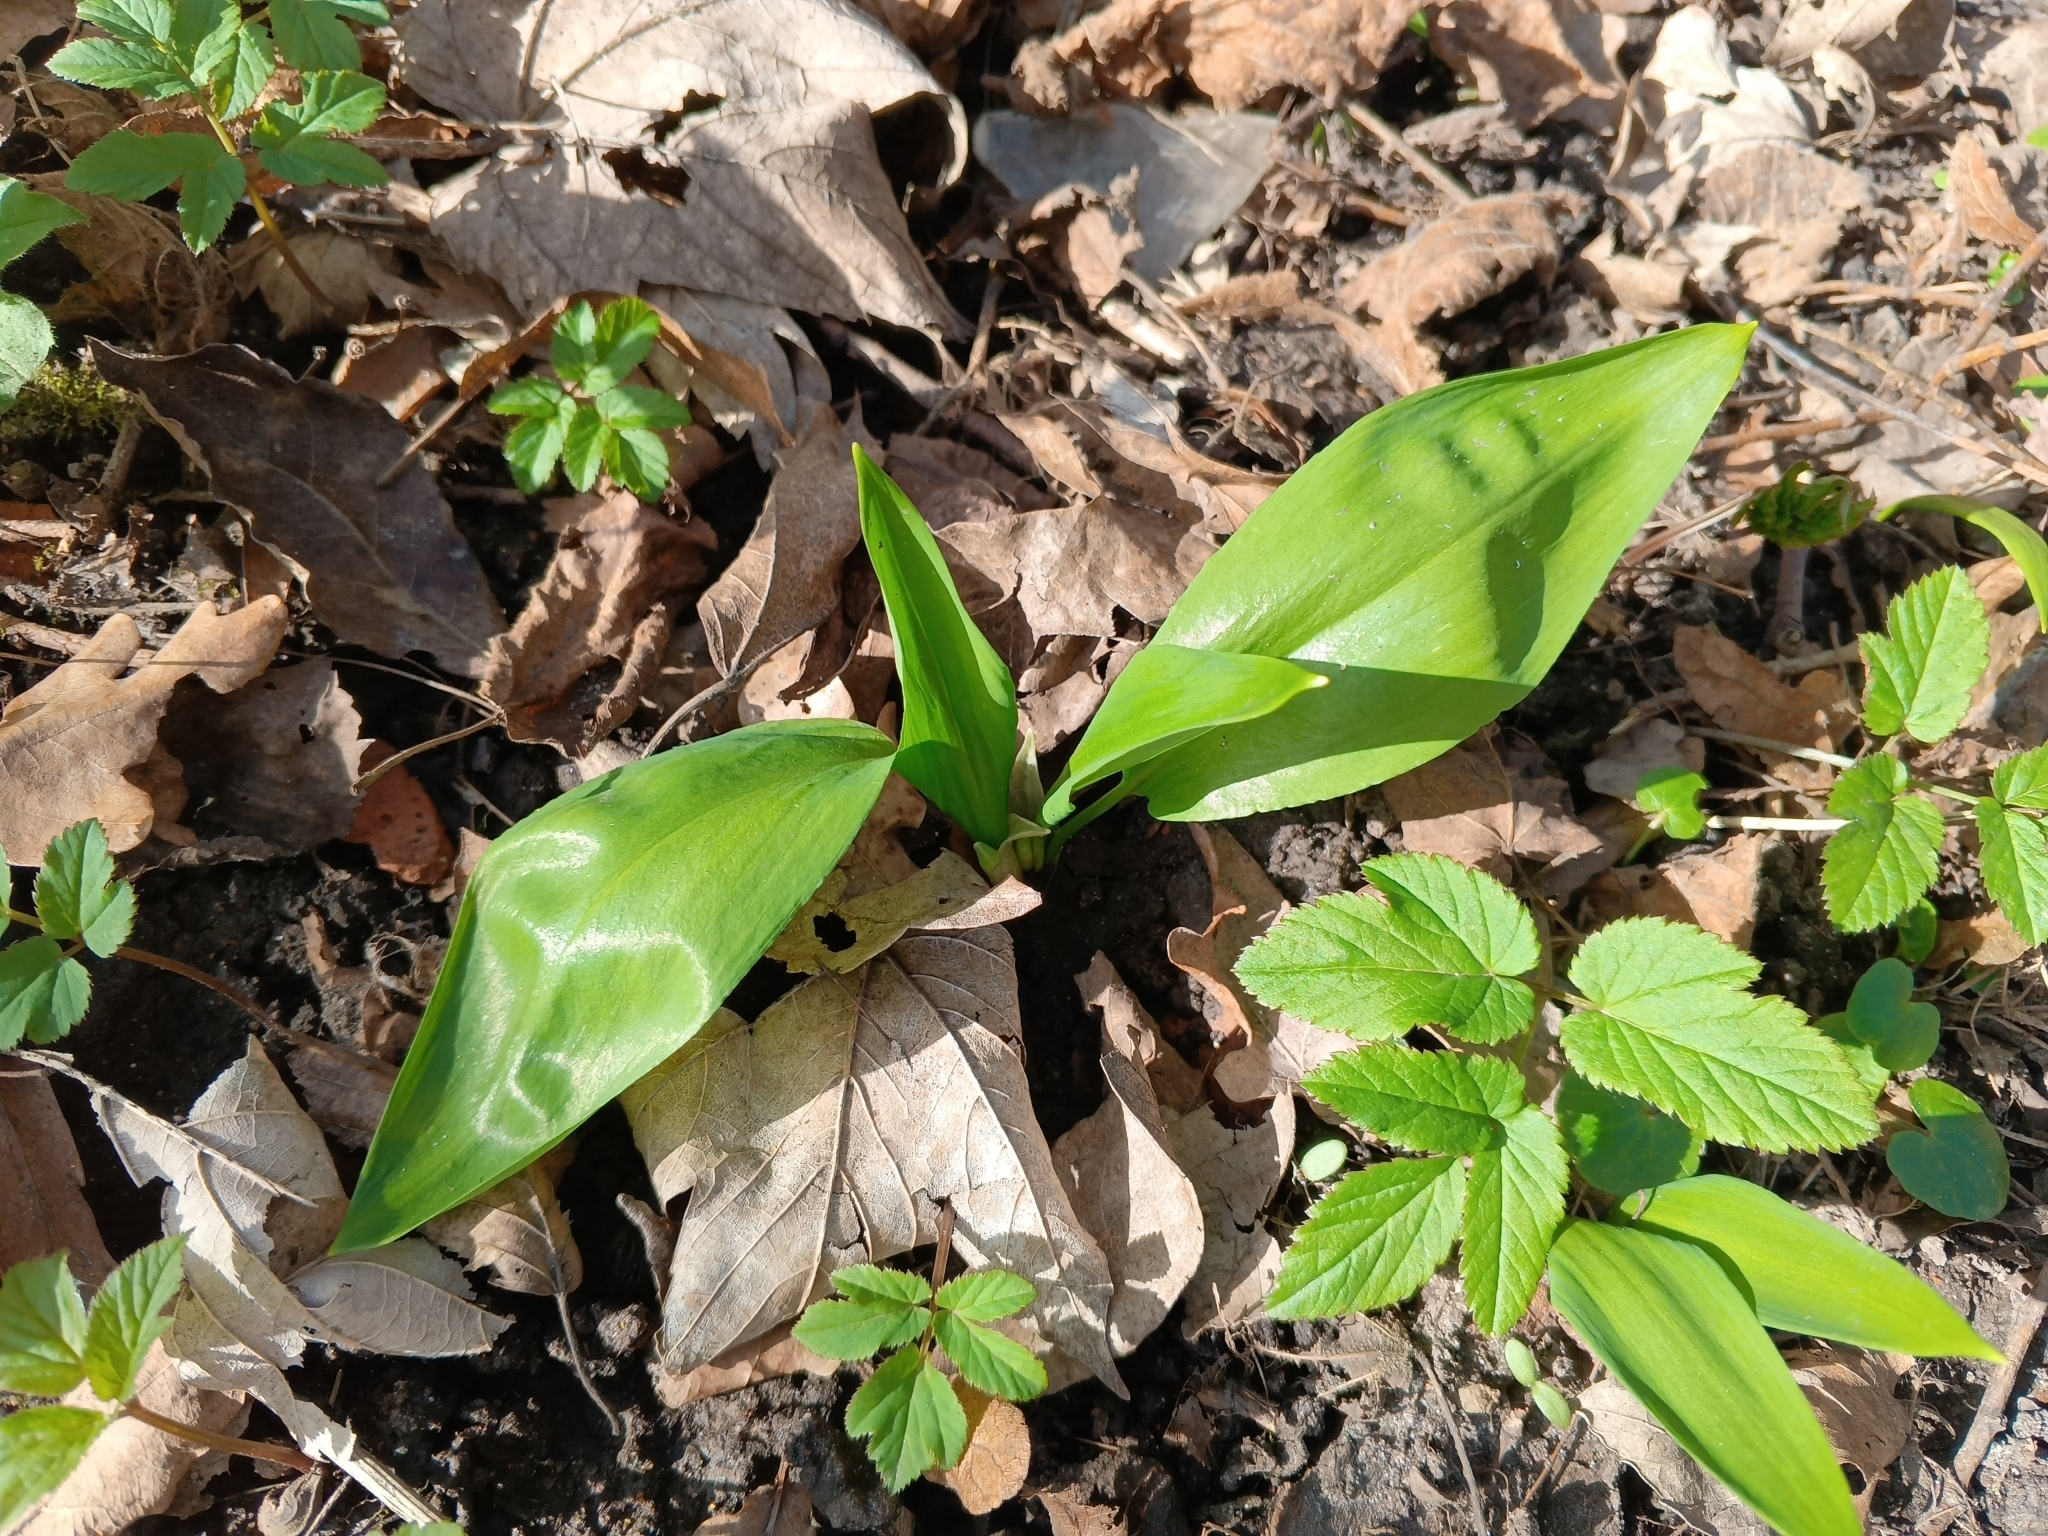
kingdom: Plantae
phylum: Tracheophyta
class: Liliopsida
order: Asparagales
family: Amaryllidaceae
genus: Allium
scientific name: Allium ursinum
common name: Ramsons
